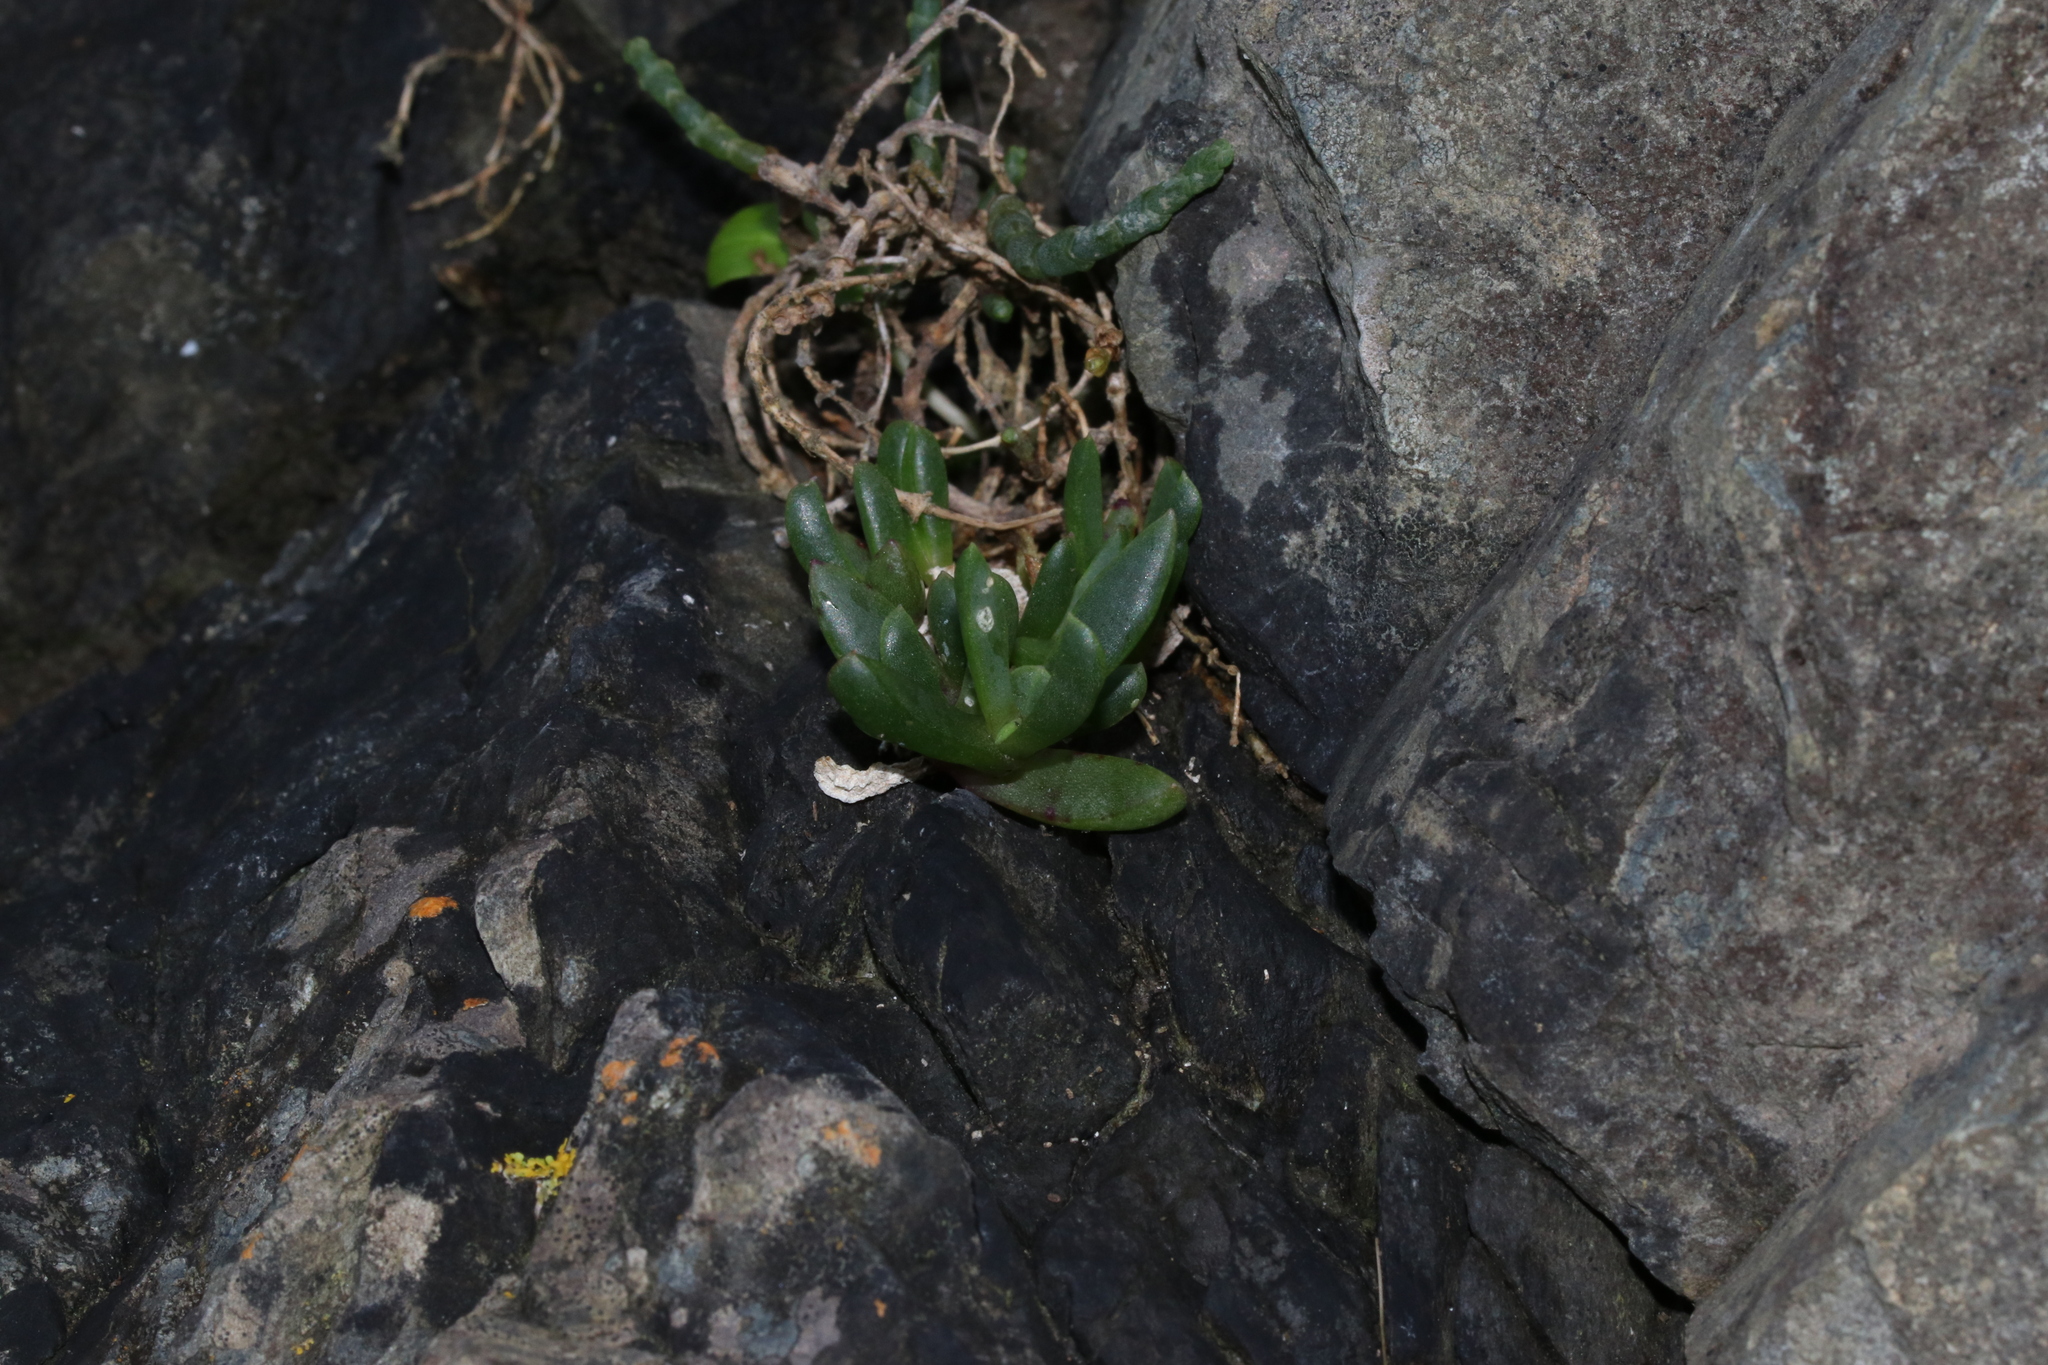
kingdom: Plantae
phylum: Tracheophyta
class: Magnoliopsida
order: Caryophyllales
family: Aizoaceae
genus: Disphyma
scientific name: Disphyma australe
